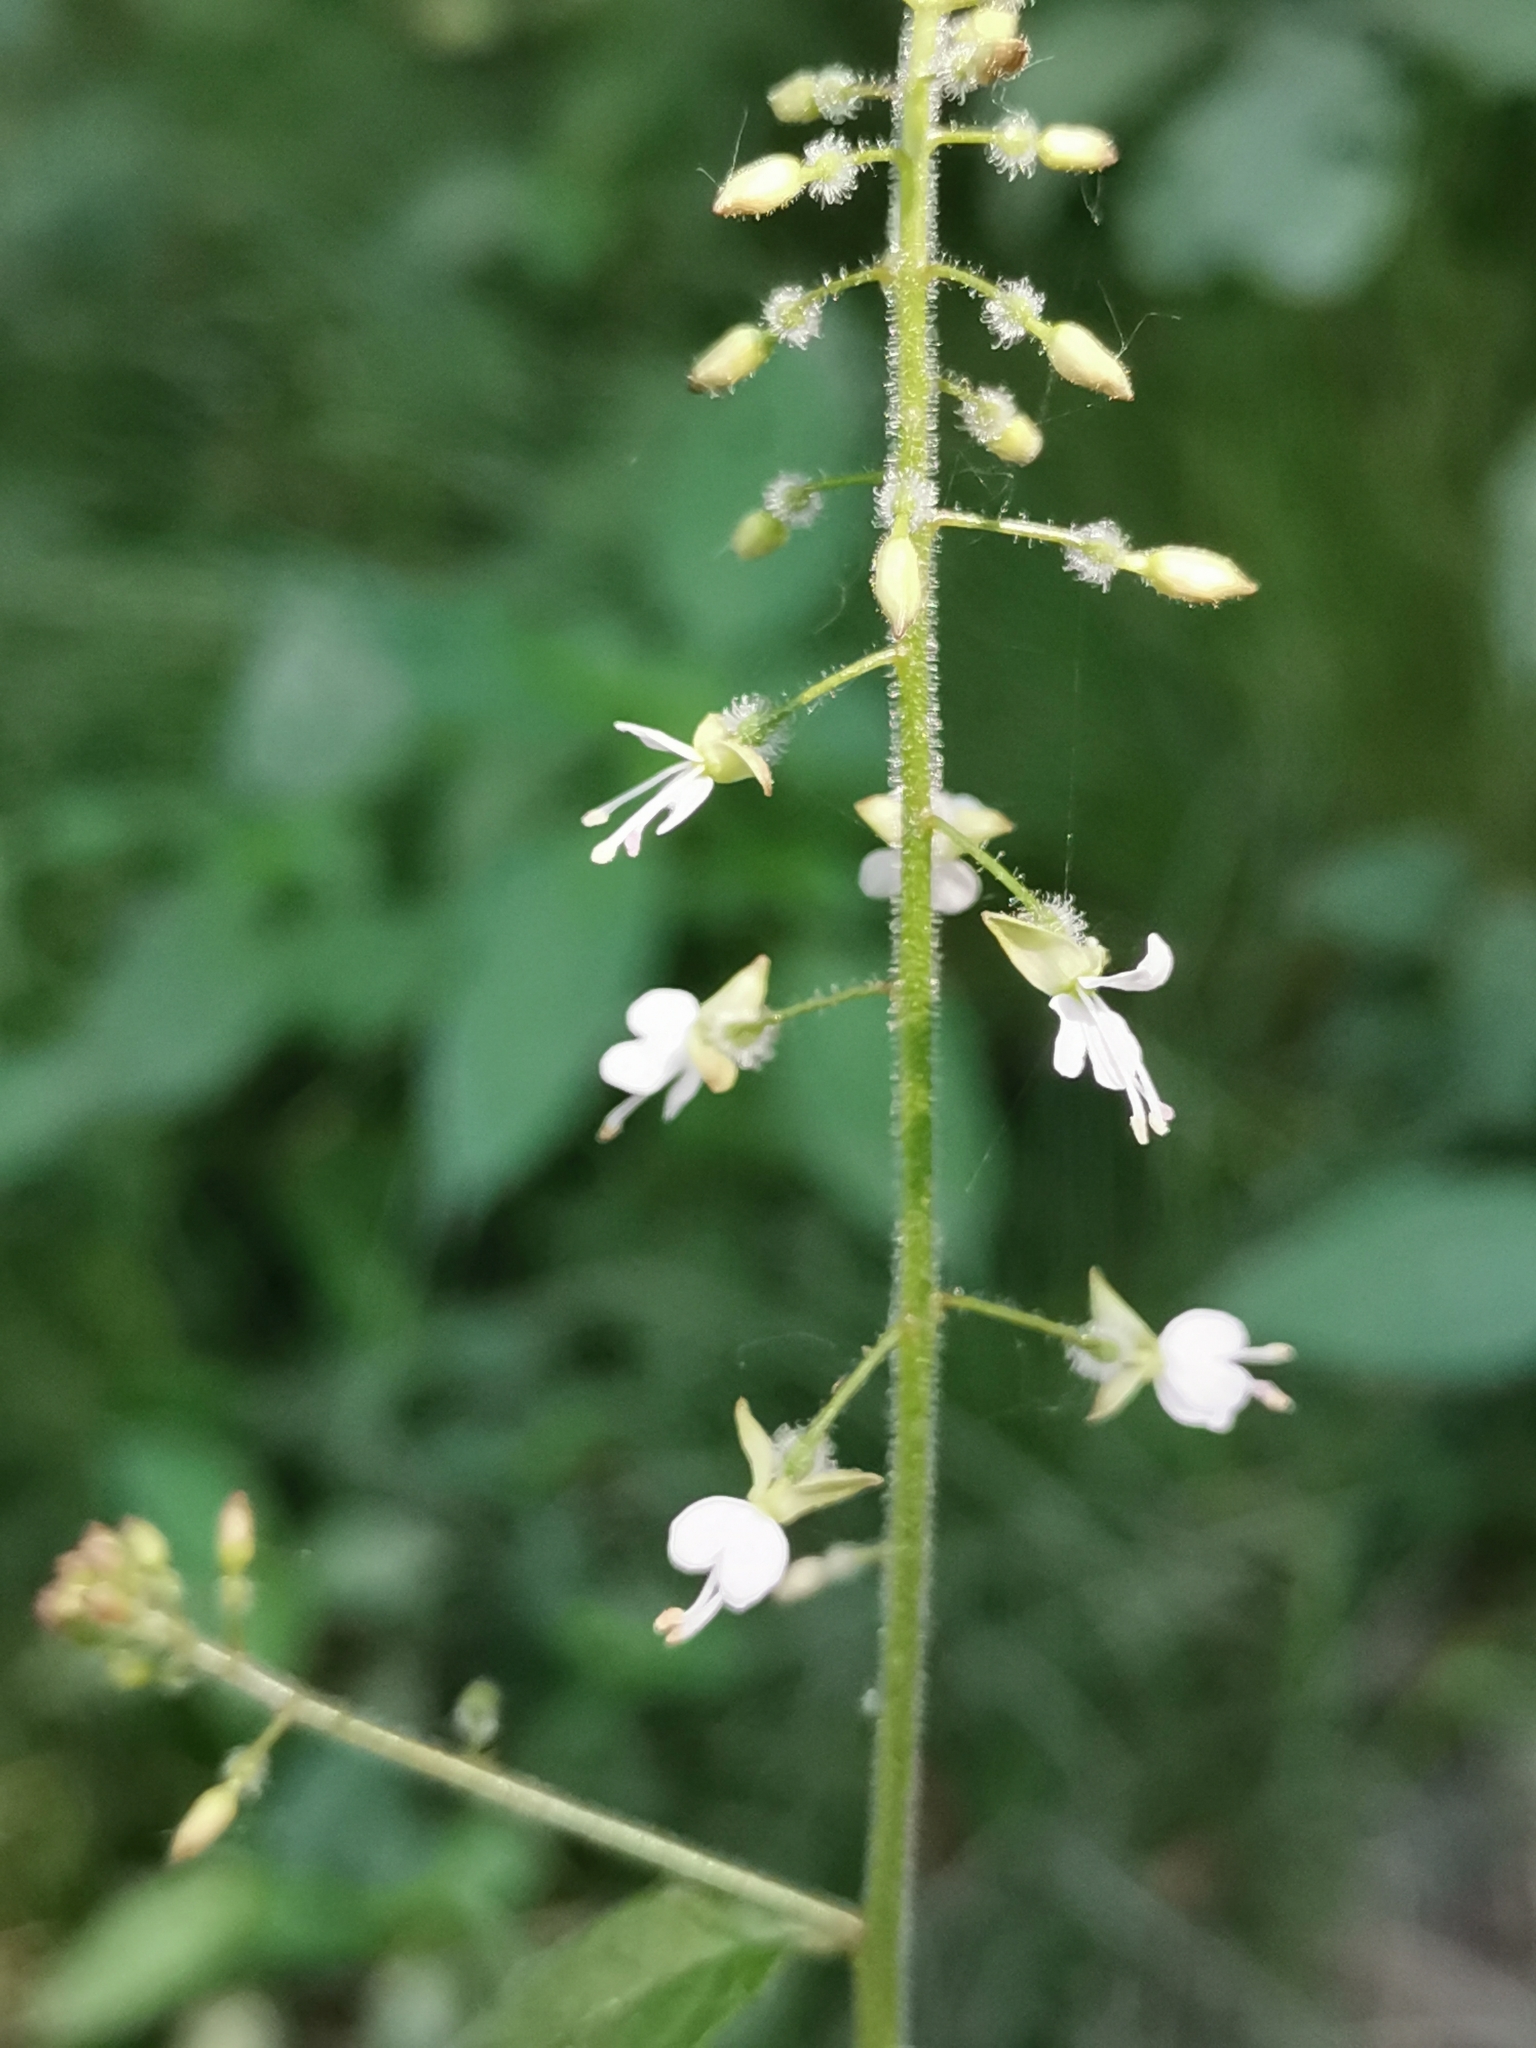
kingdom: Plantae
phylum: Tracheophyta
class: Magnoliopsida
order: Myrtales
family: Onagraceae
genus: Circaea
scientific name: Circaea lutetiana
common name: Enchanter's-nightshade
